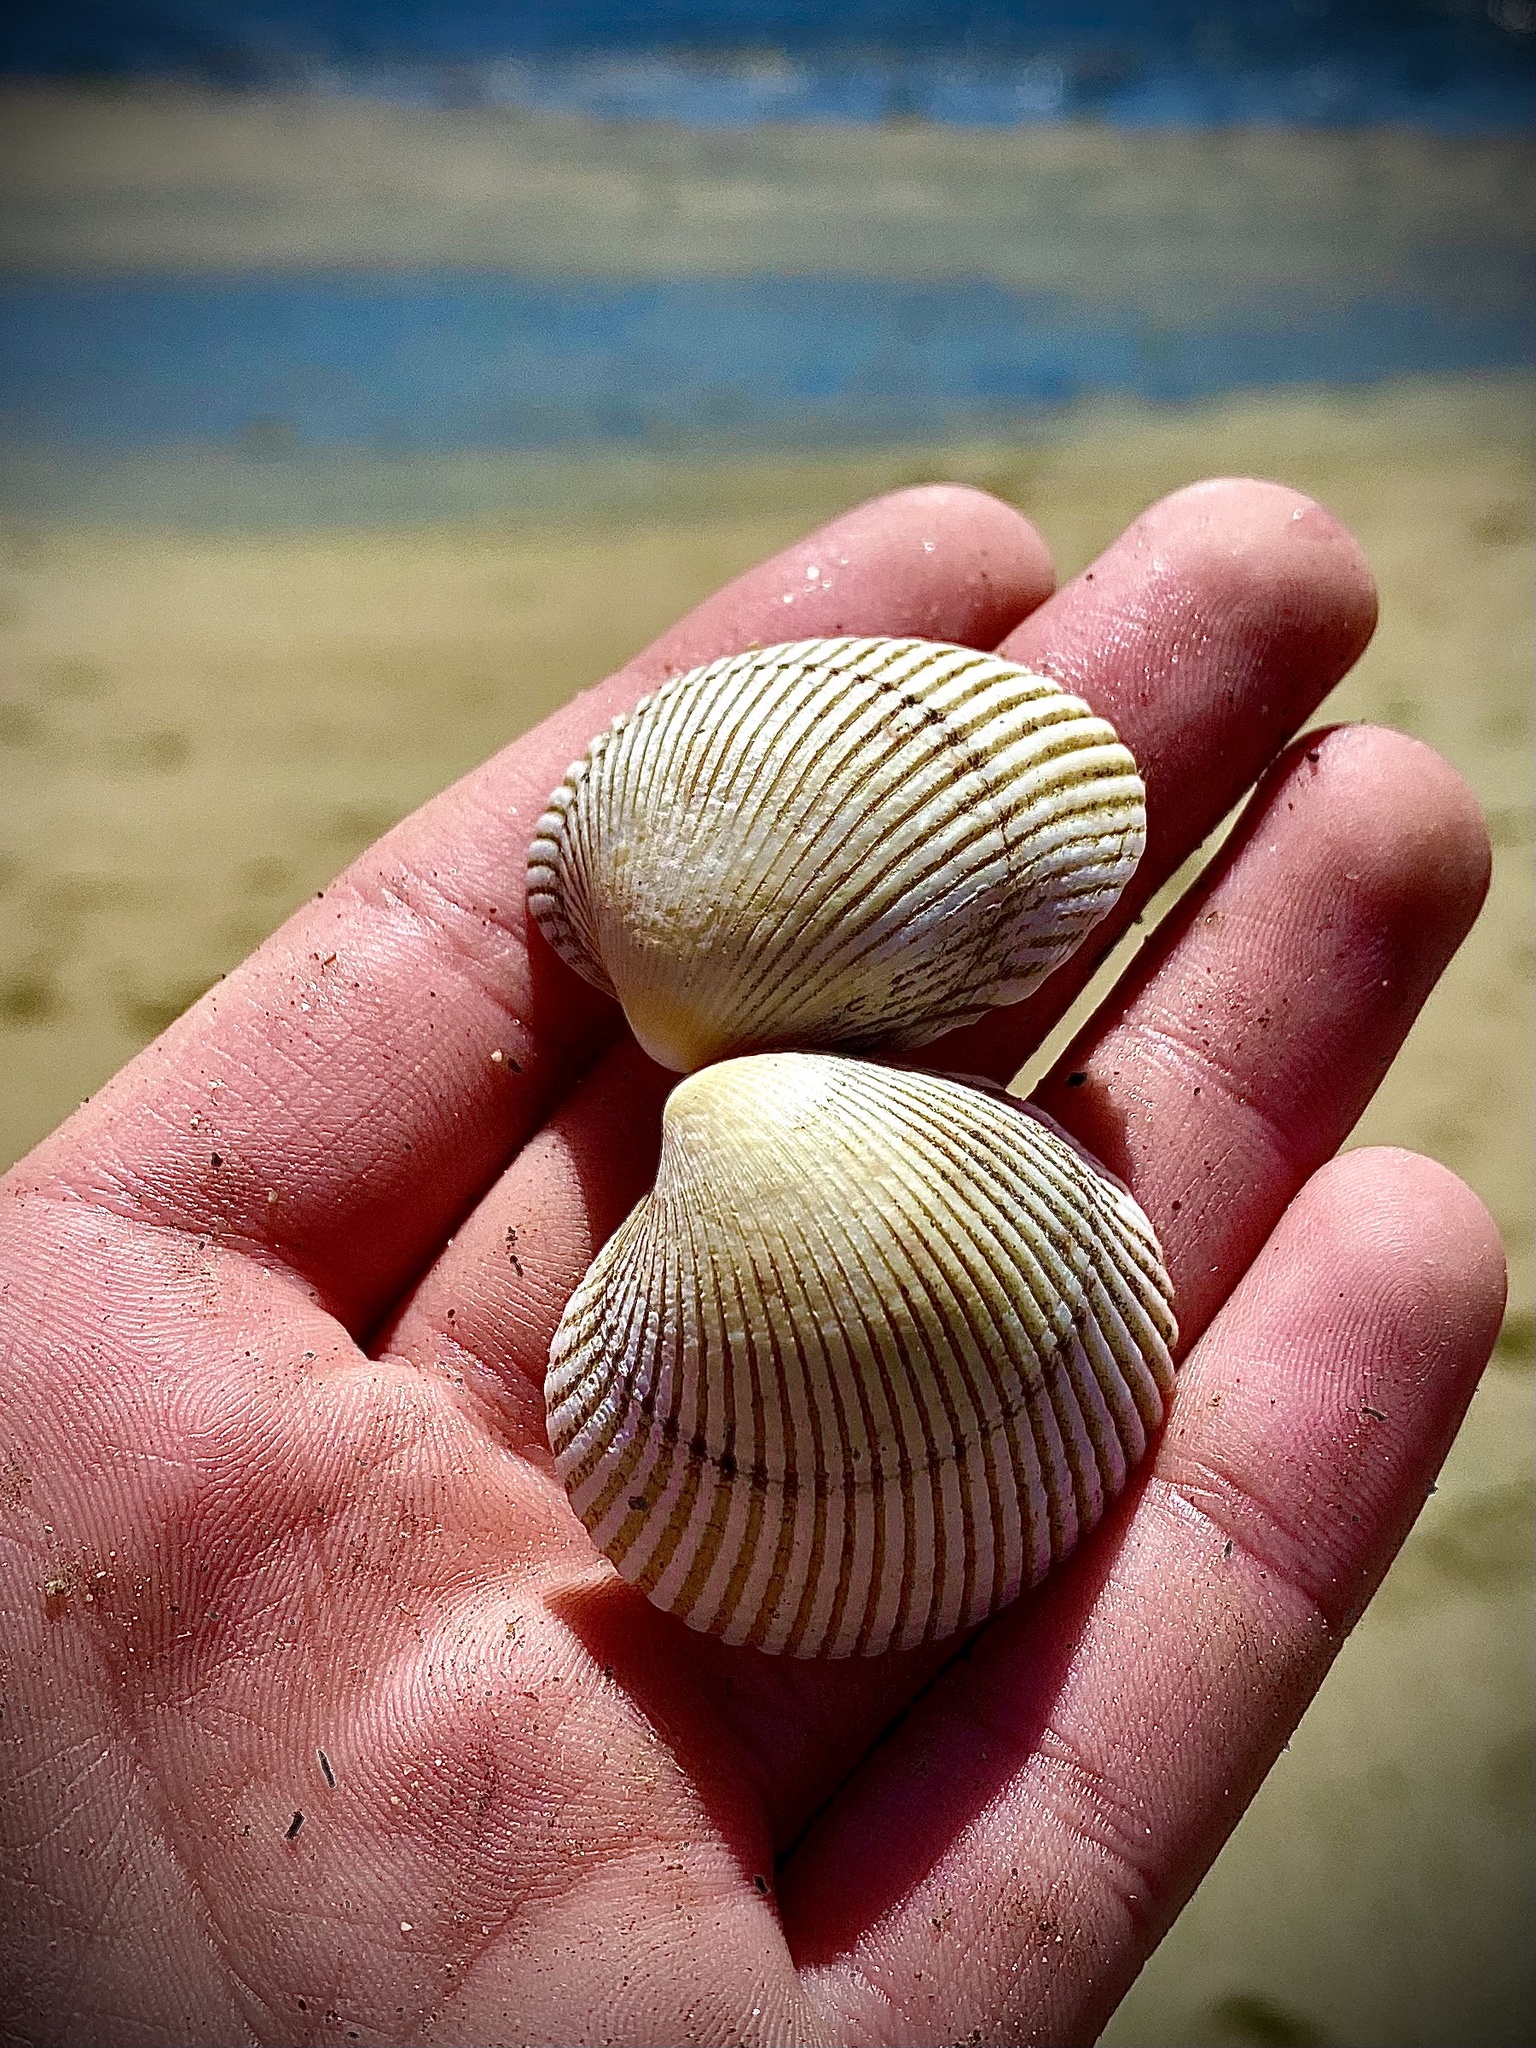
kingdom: Animalia
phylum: Mollusca
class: Bivalvia
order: Cardiida
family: Cardiidae
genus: Clinocardium
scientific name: Clinocardium nuttallii
